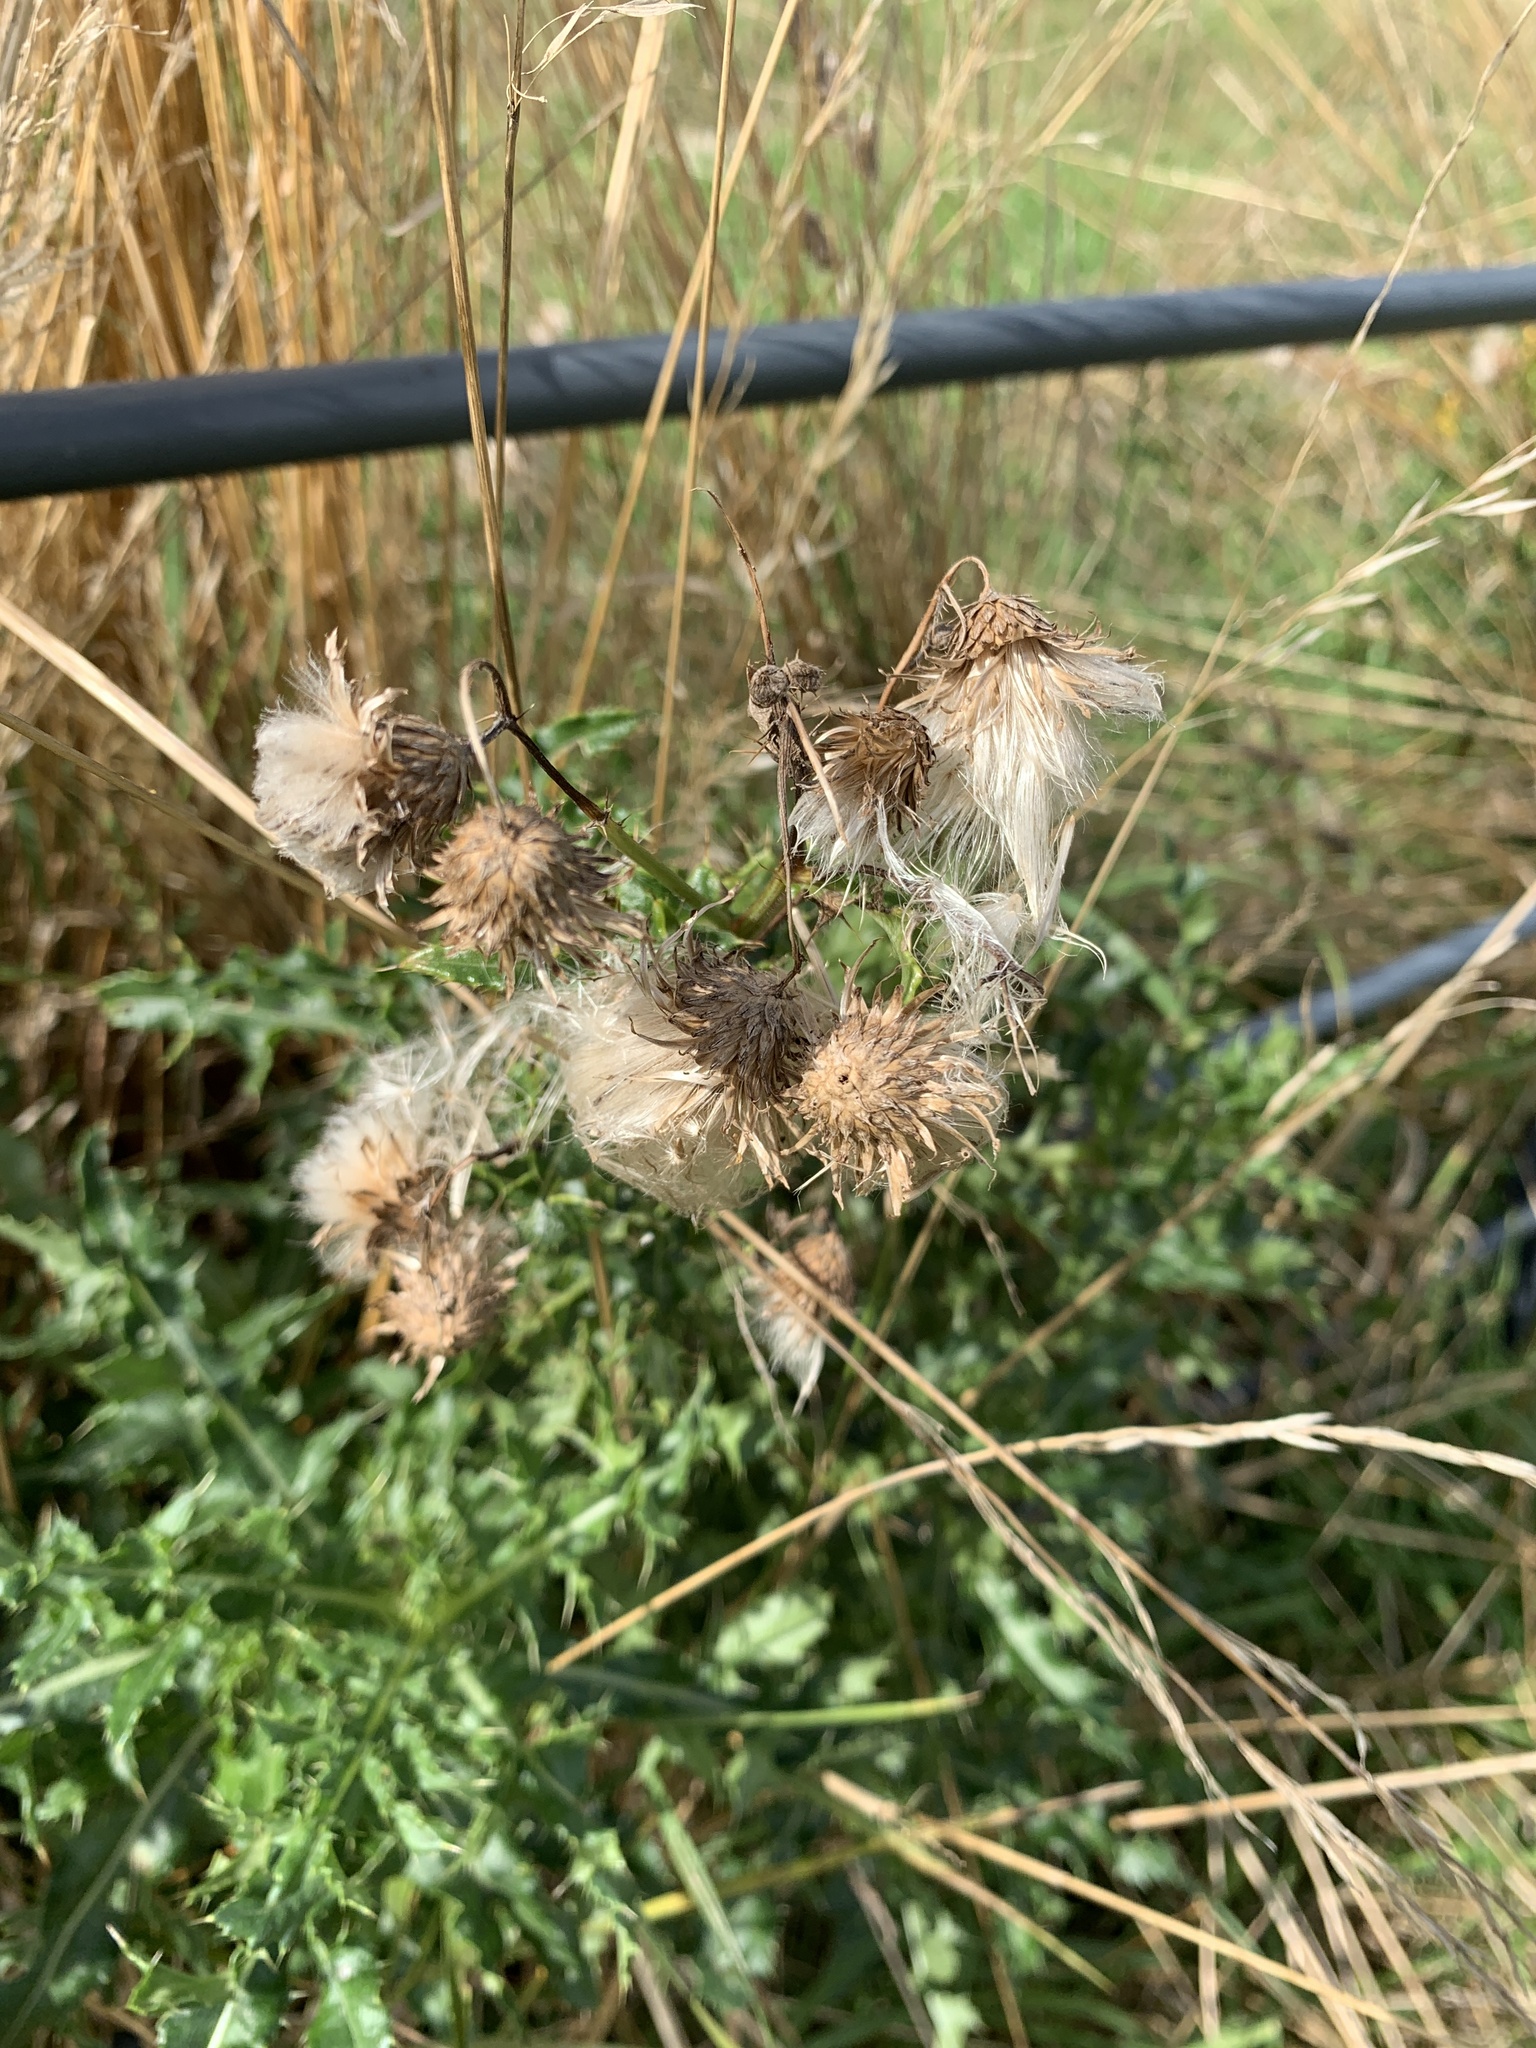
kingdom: Plantae
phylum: Tracheophyta
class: Magnoliopsida
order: Asterales
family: Asteraceae
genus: Cirsium
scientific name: Cirsium arvense
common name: Creeping thistle
